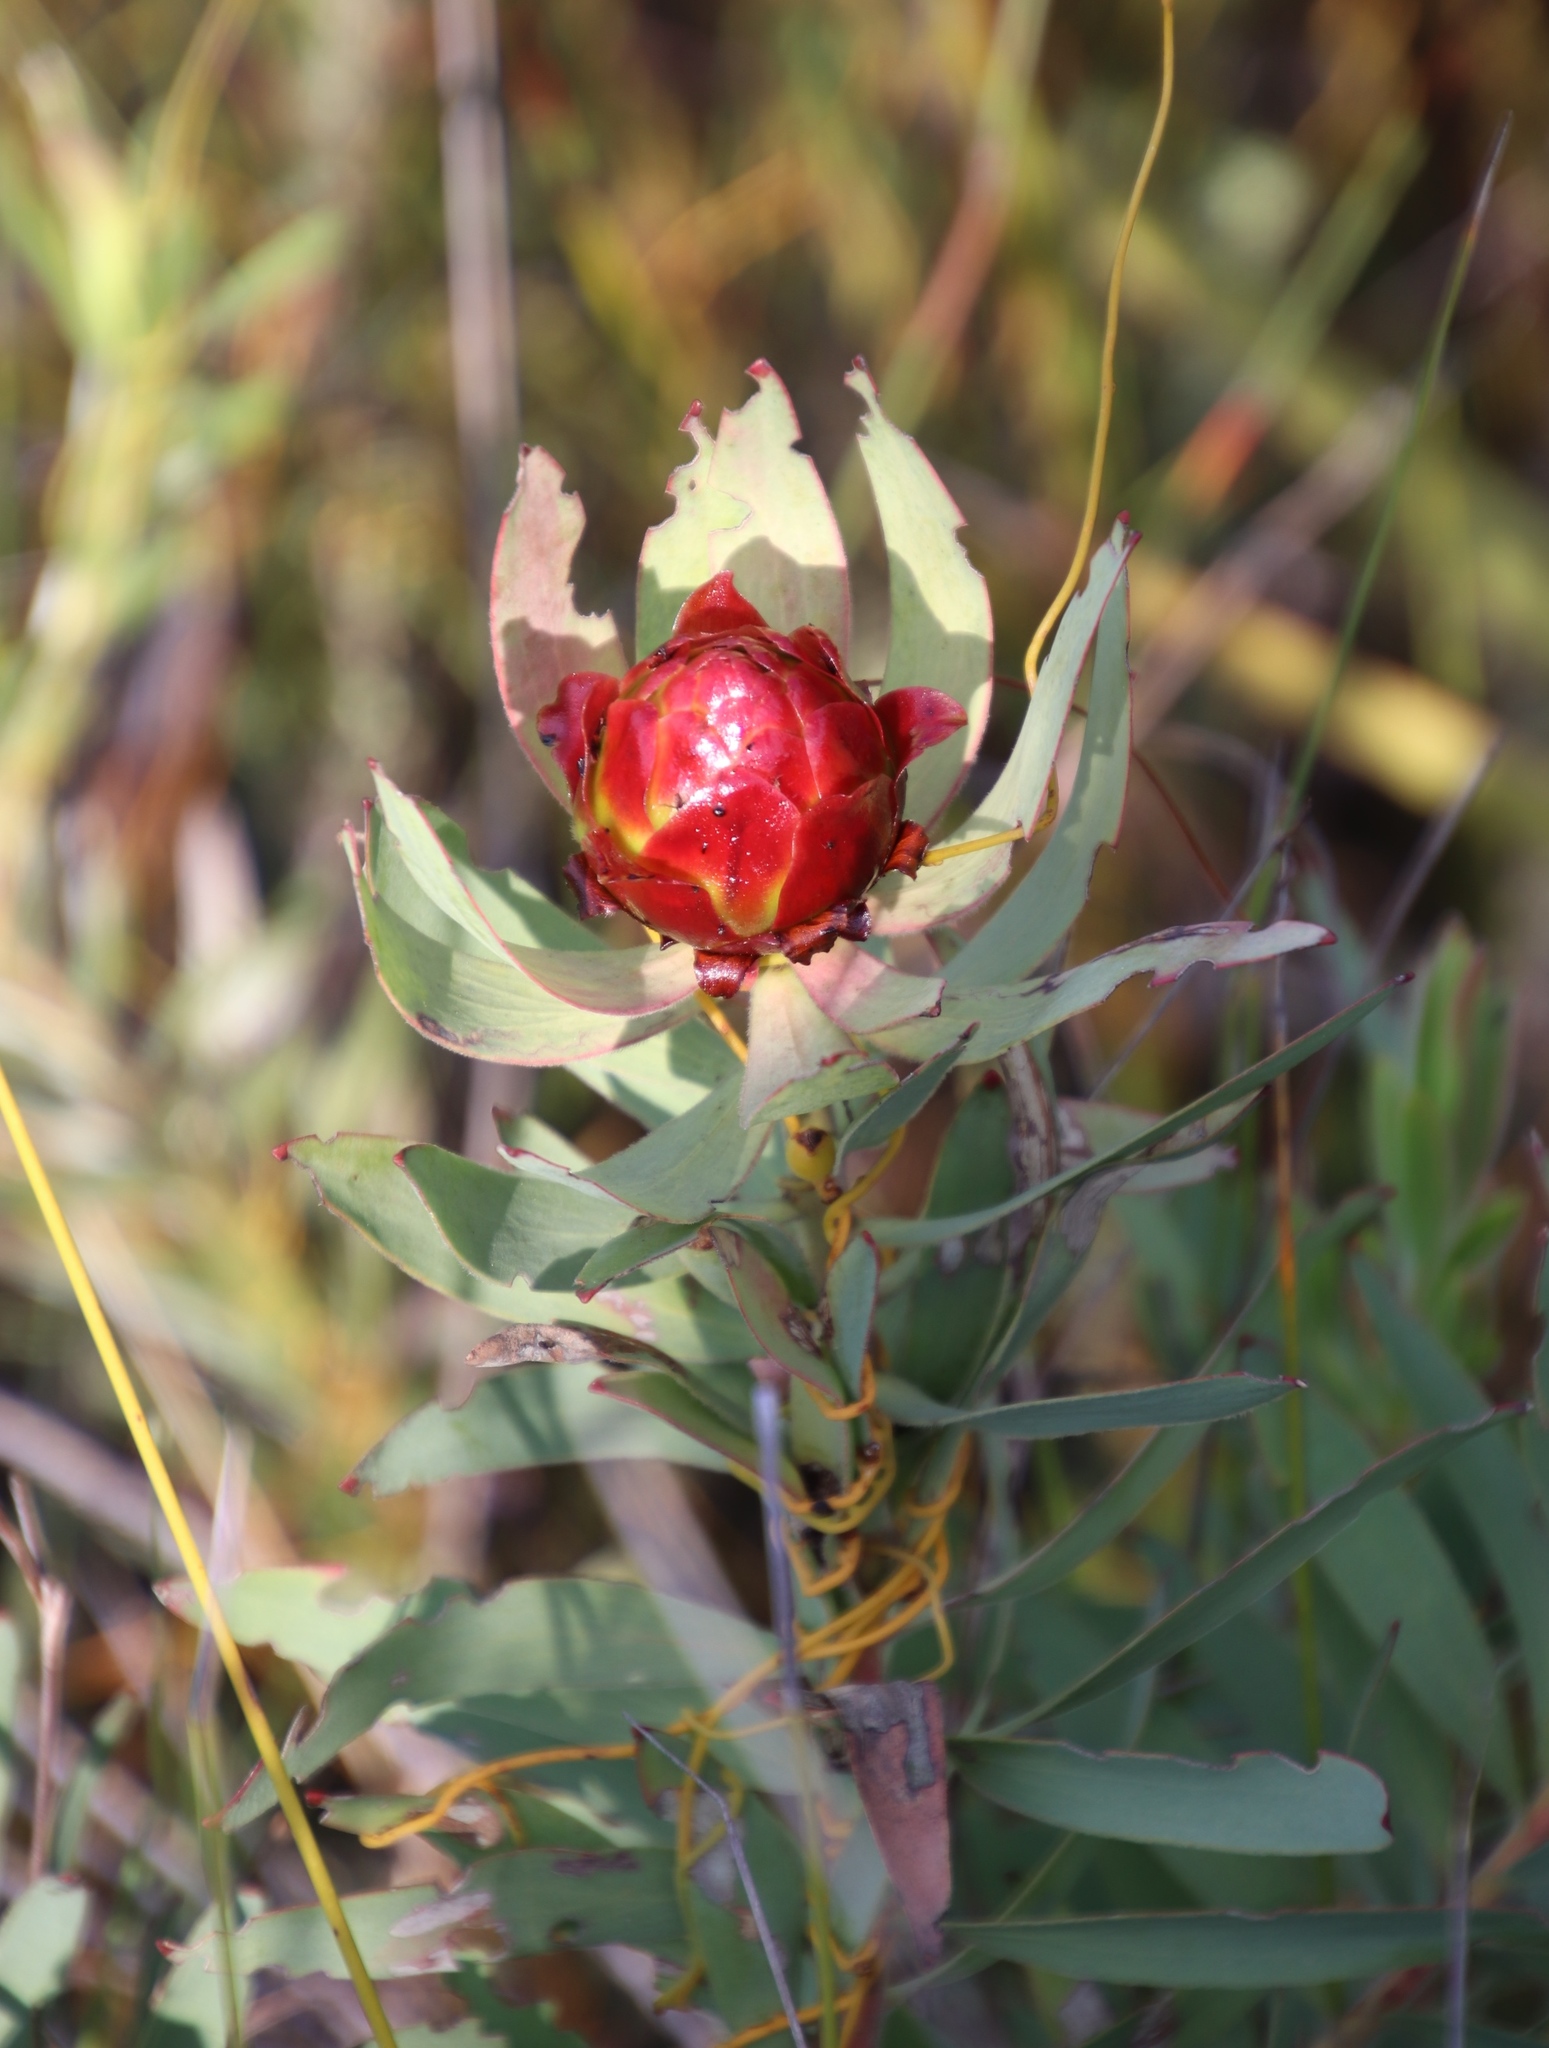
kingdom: Plantae
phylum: Tracheophyta
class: Magnoliopsida
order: Proteales
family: Proteaceae
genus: Leucadendron
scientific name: Leucadendron tinctum
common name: Spicy conebush
